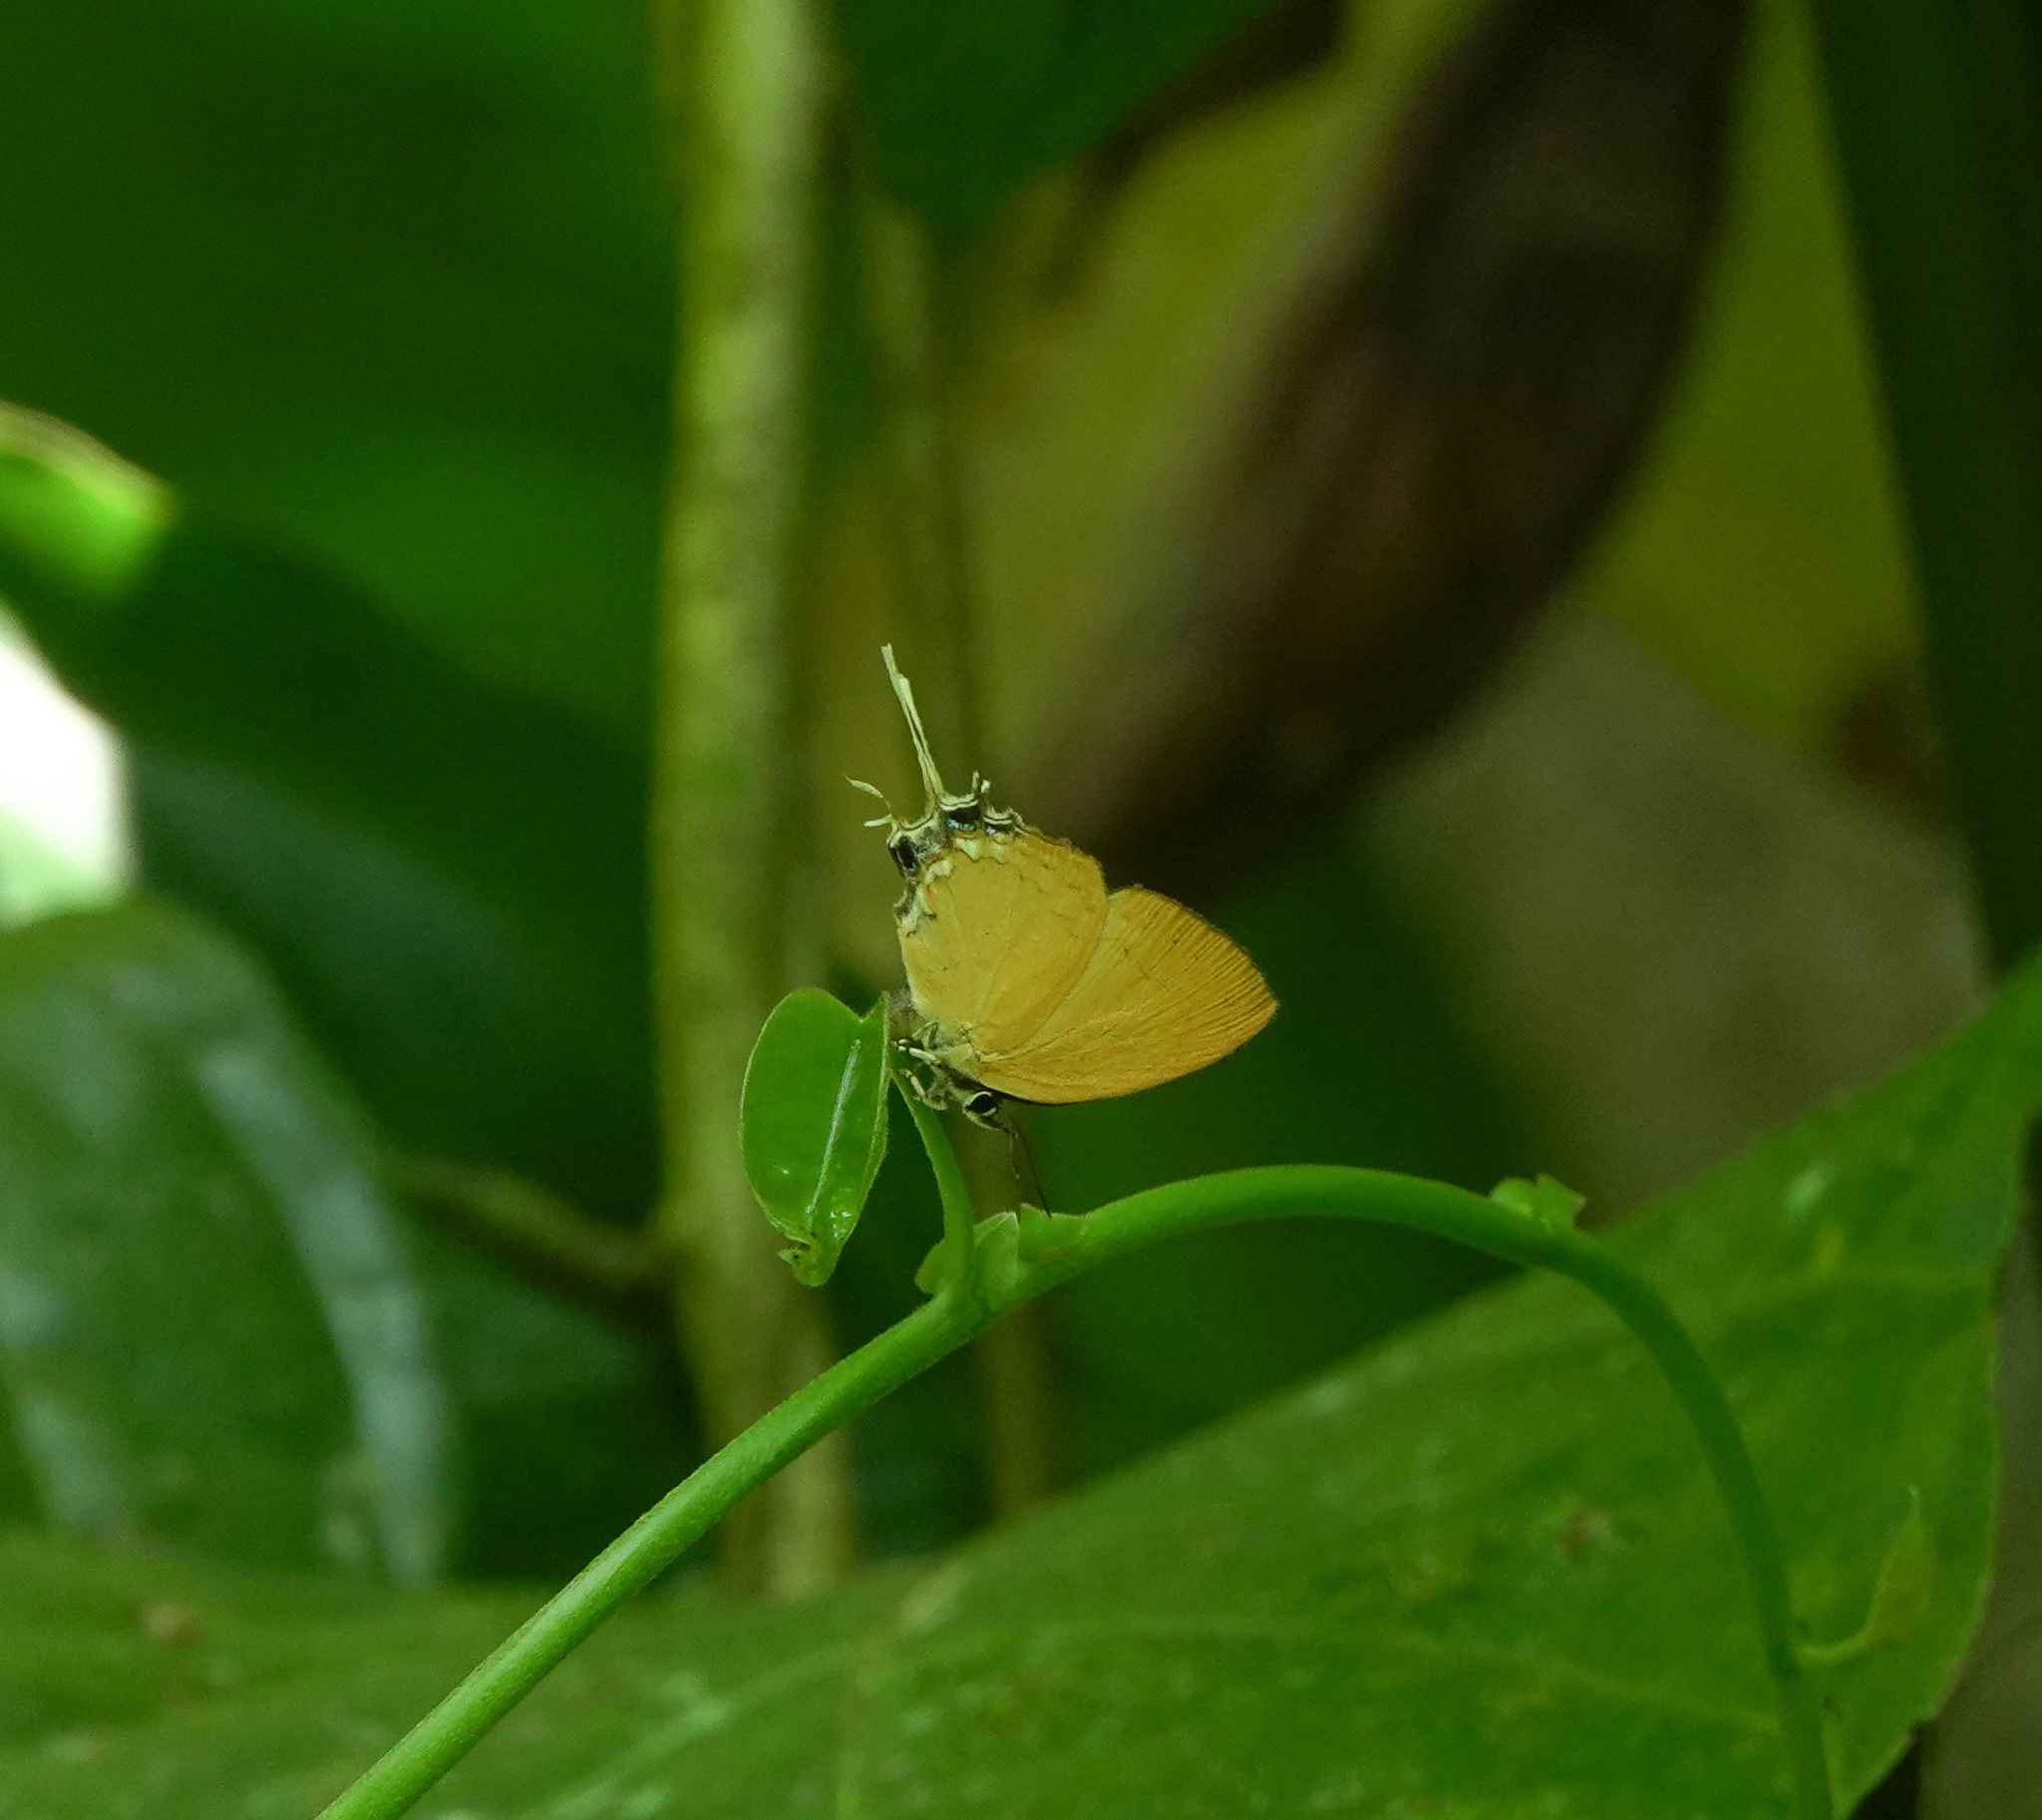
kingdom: Animalia
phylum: Arthropoda
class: Insecta
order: Lepidoptera
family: Lycaenidae
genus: Ticherra
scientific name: Ticherra acte
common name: Blue imperial
